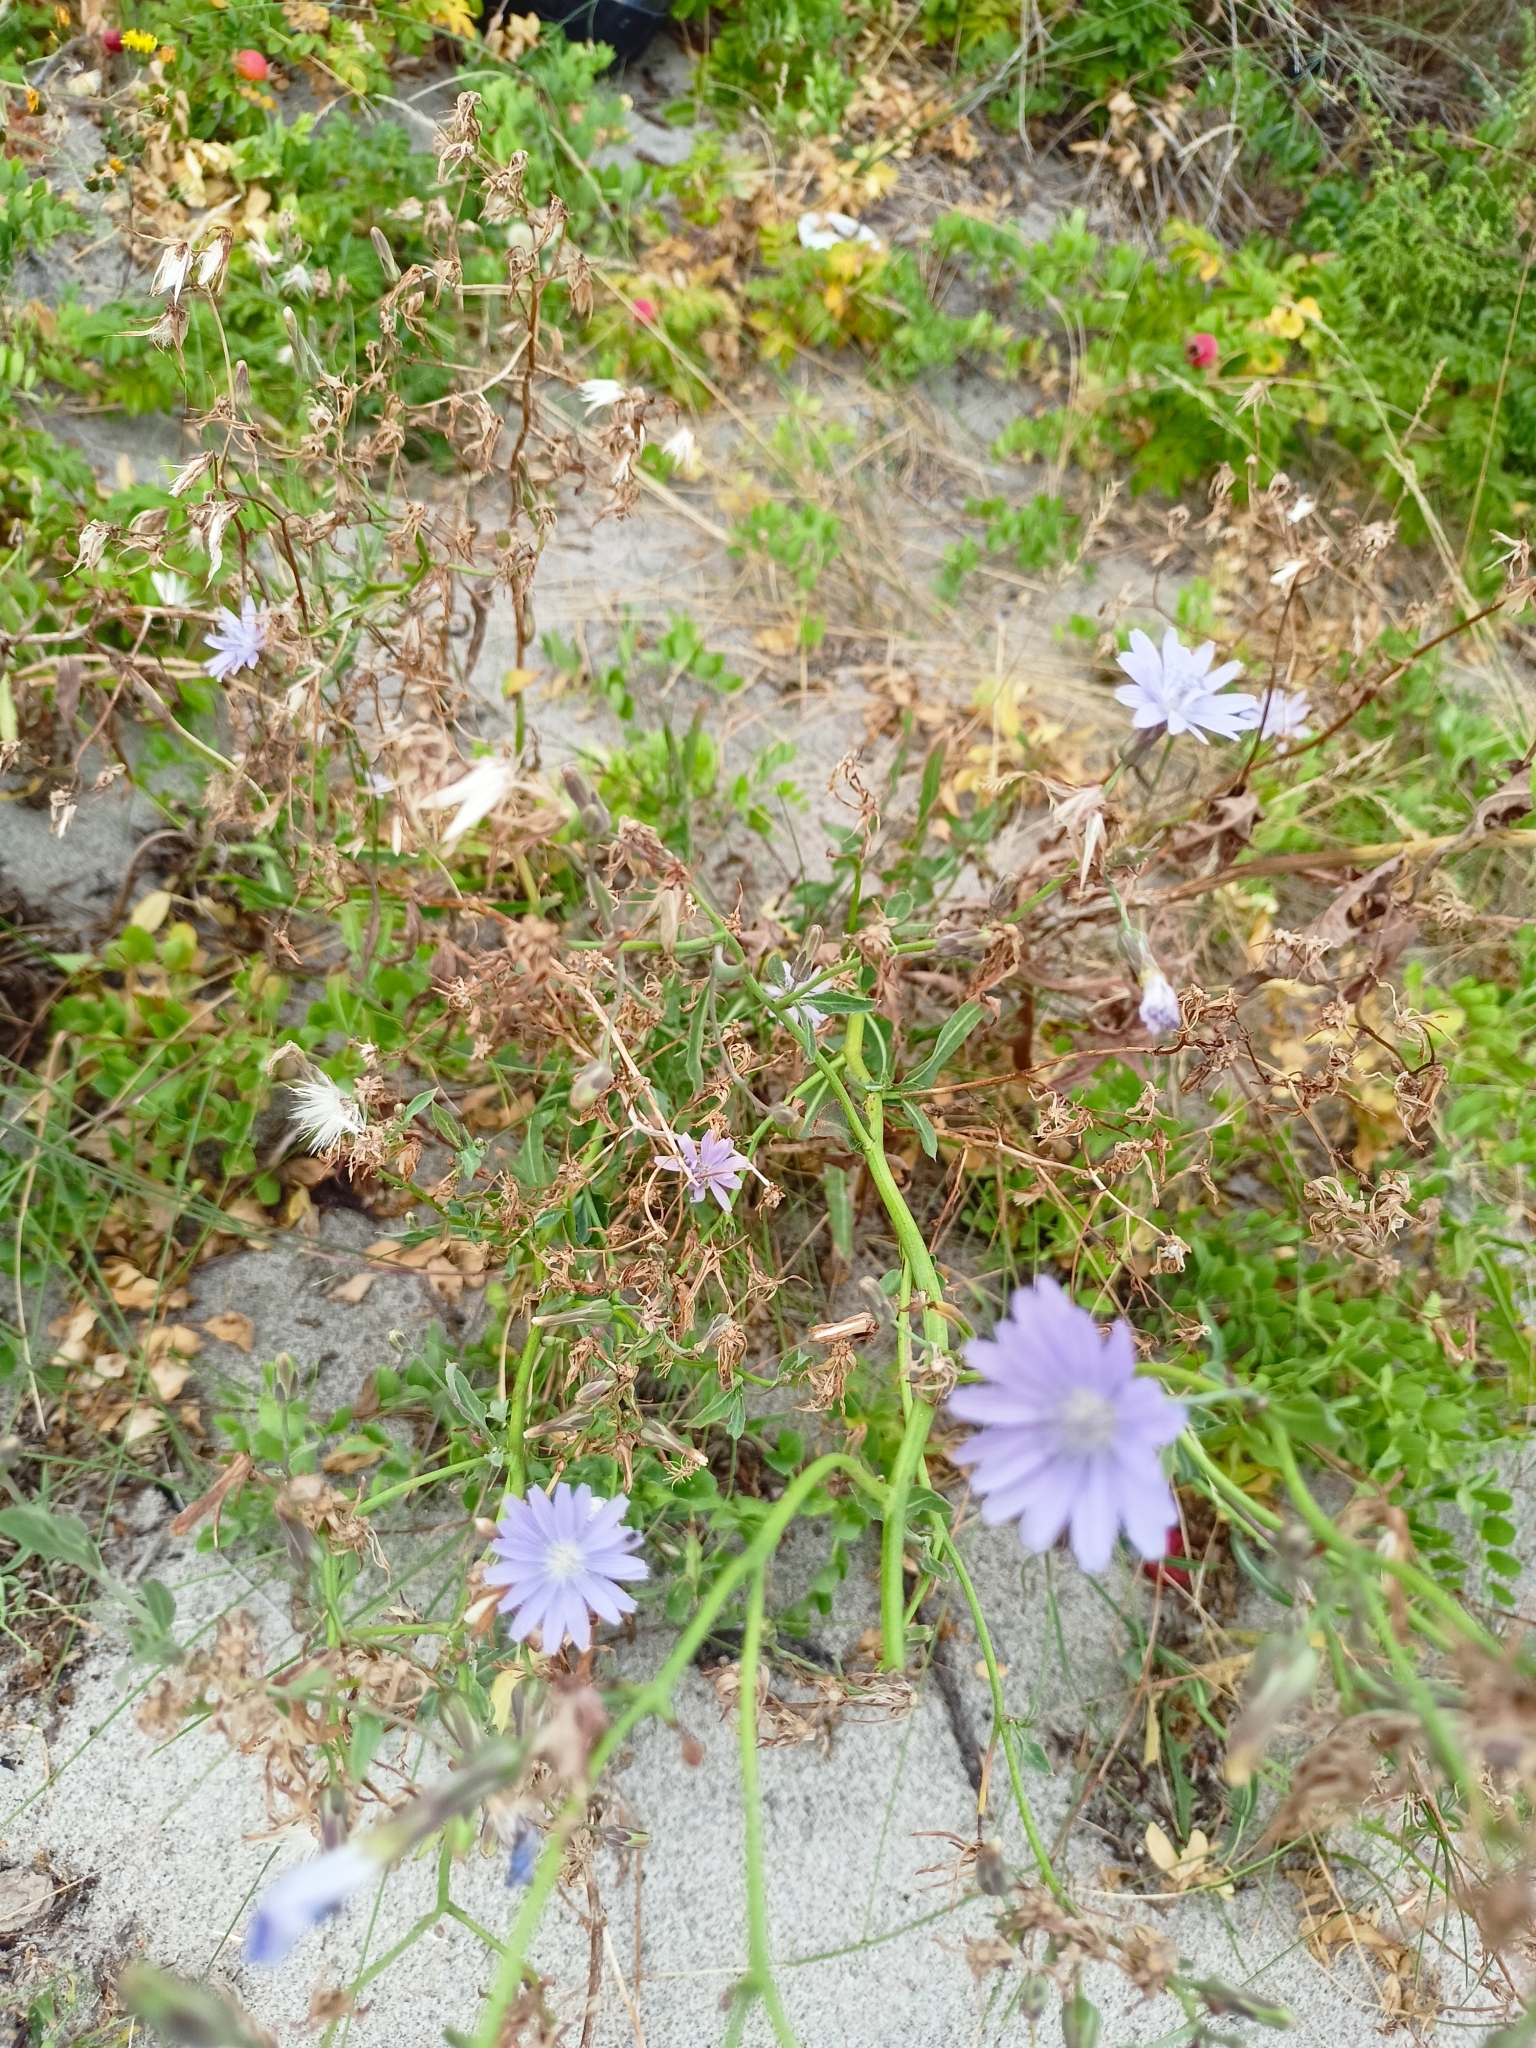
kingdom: Plantae
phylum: Tracheophyta
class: Magnoliopsida
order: Asterales
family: Asteraceae
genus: Cichorium
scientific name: Cichorium intybus
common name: Chicory
